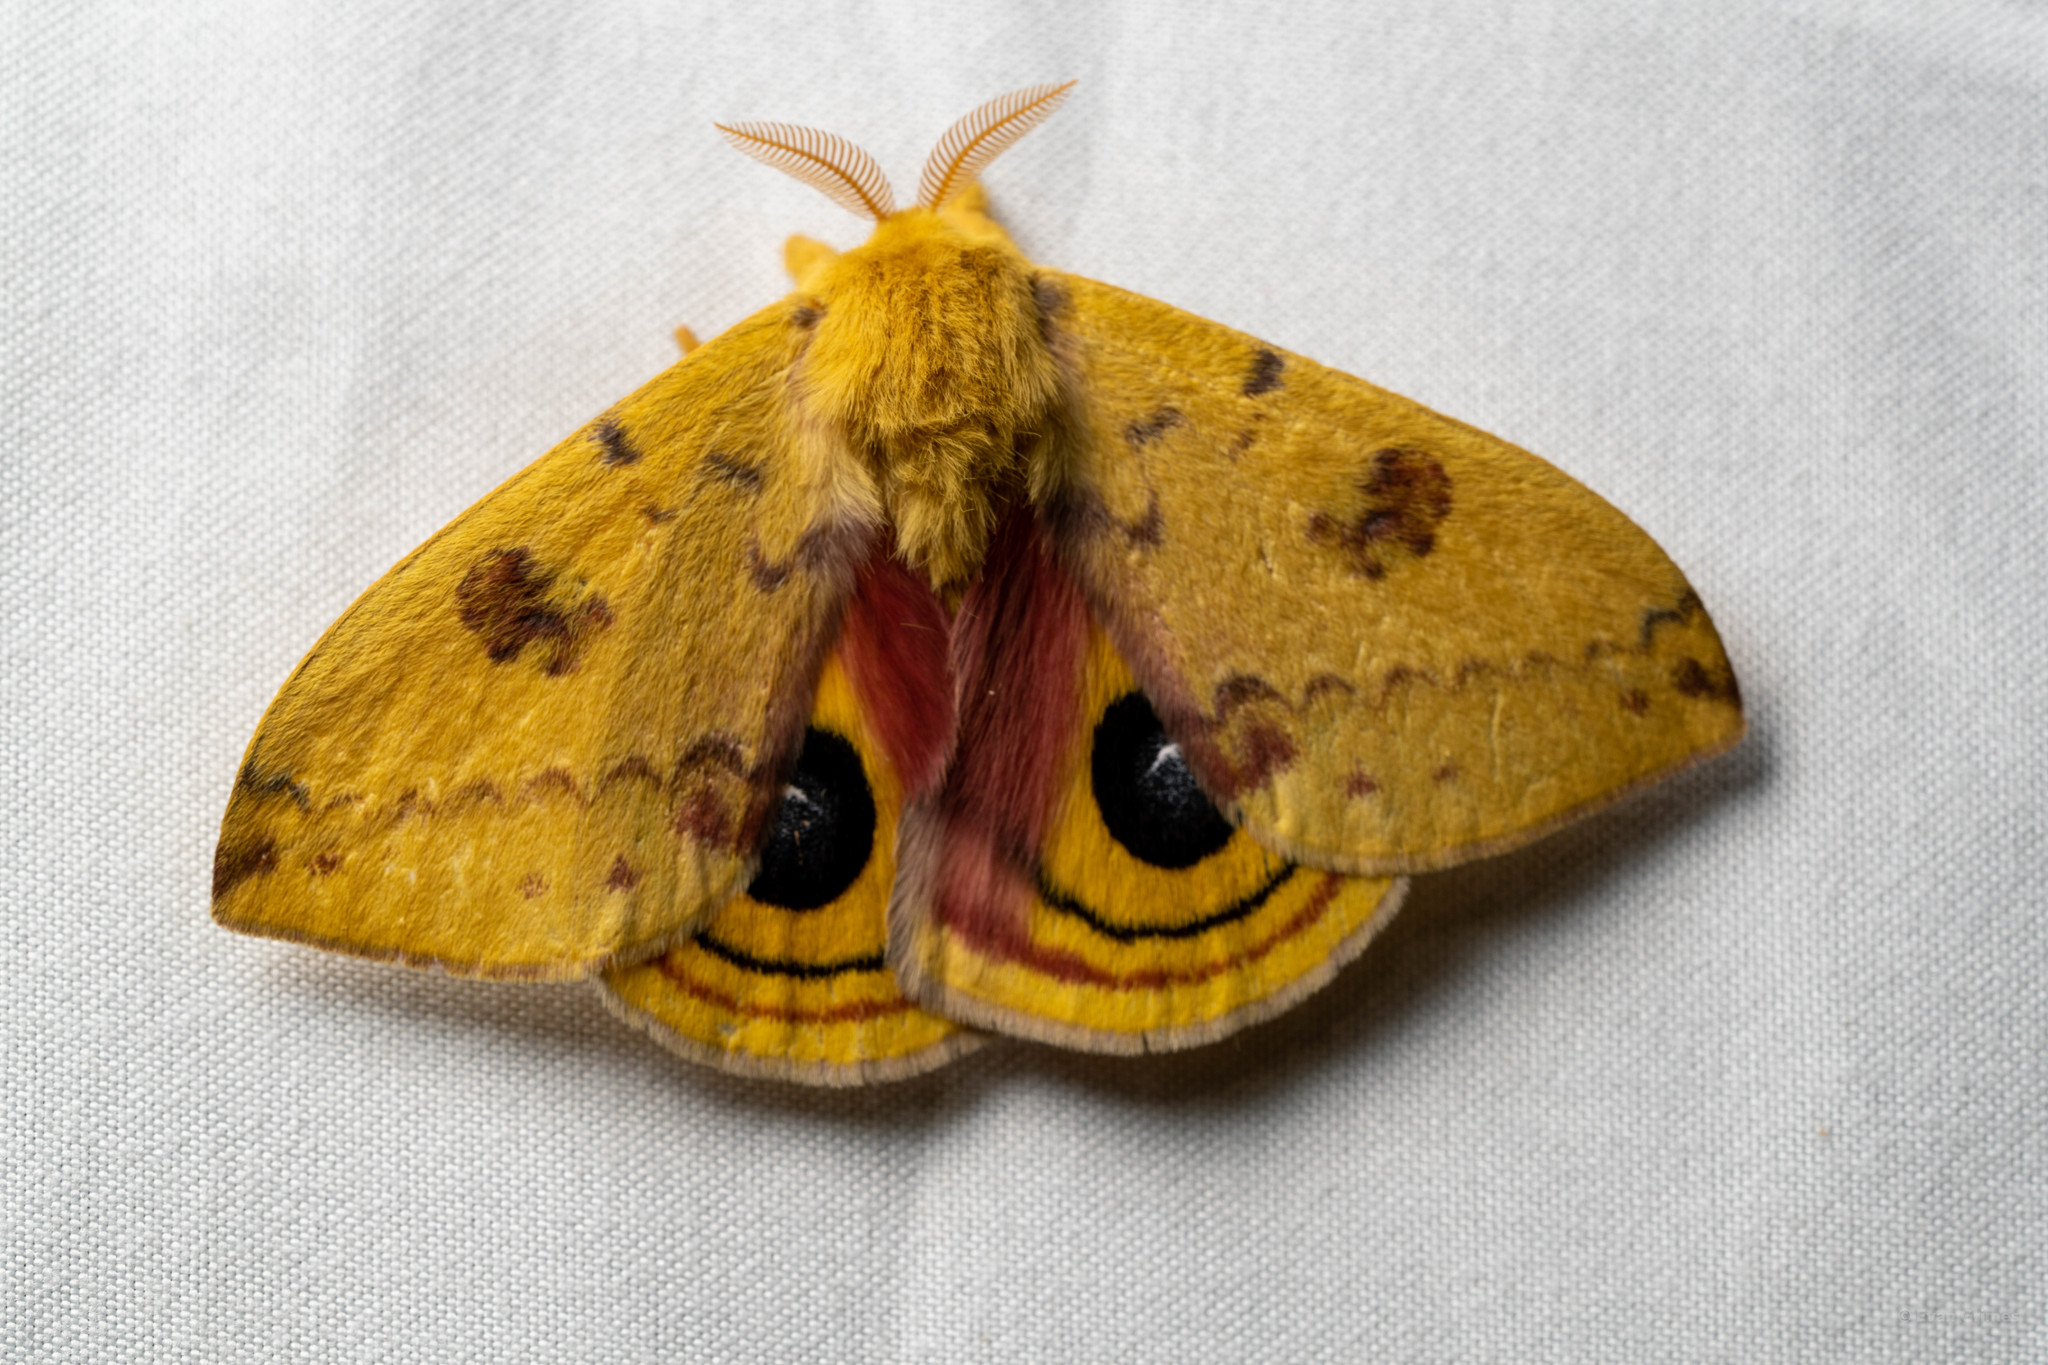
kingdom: Animalia
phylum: Arthropoda
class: Insecta
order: Lepidoptera
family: Saturniidae
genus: Automeris
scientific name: Automeris io
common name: Io moth
